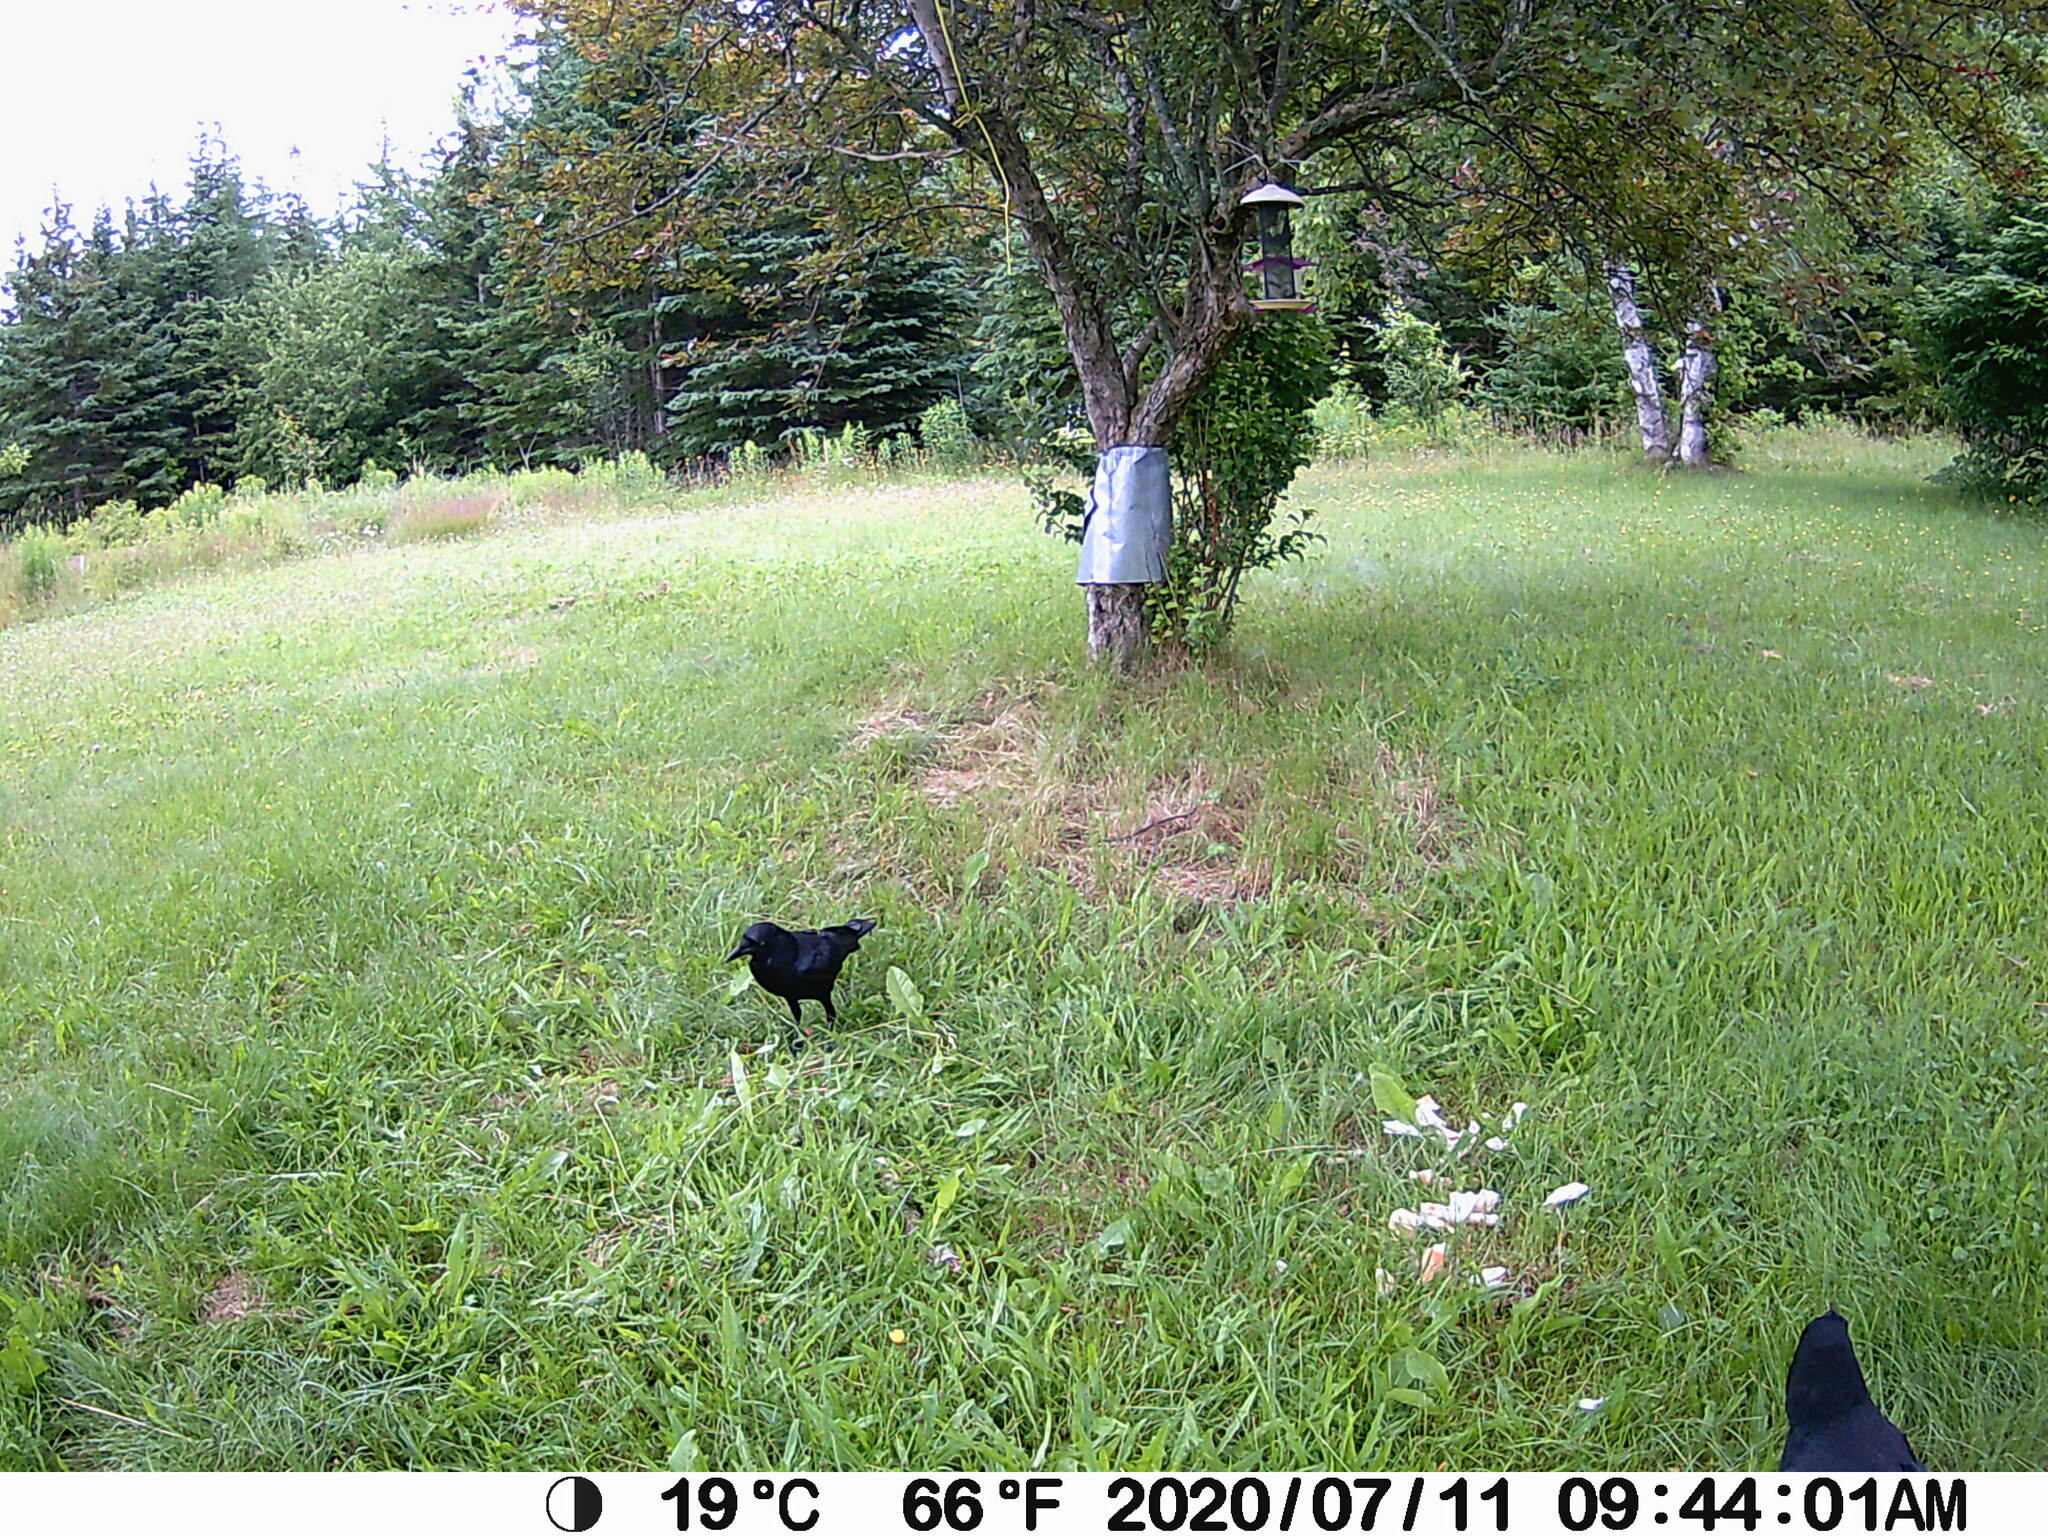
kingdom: Animalia
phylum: Chordata
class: Aves
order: Passeriformes
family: Corvidae
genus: Corvus
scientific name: Corvus brachyrhynchos
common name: American crow
